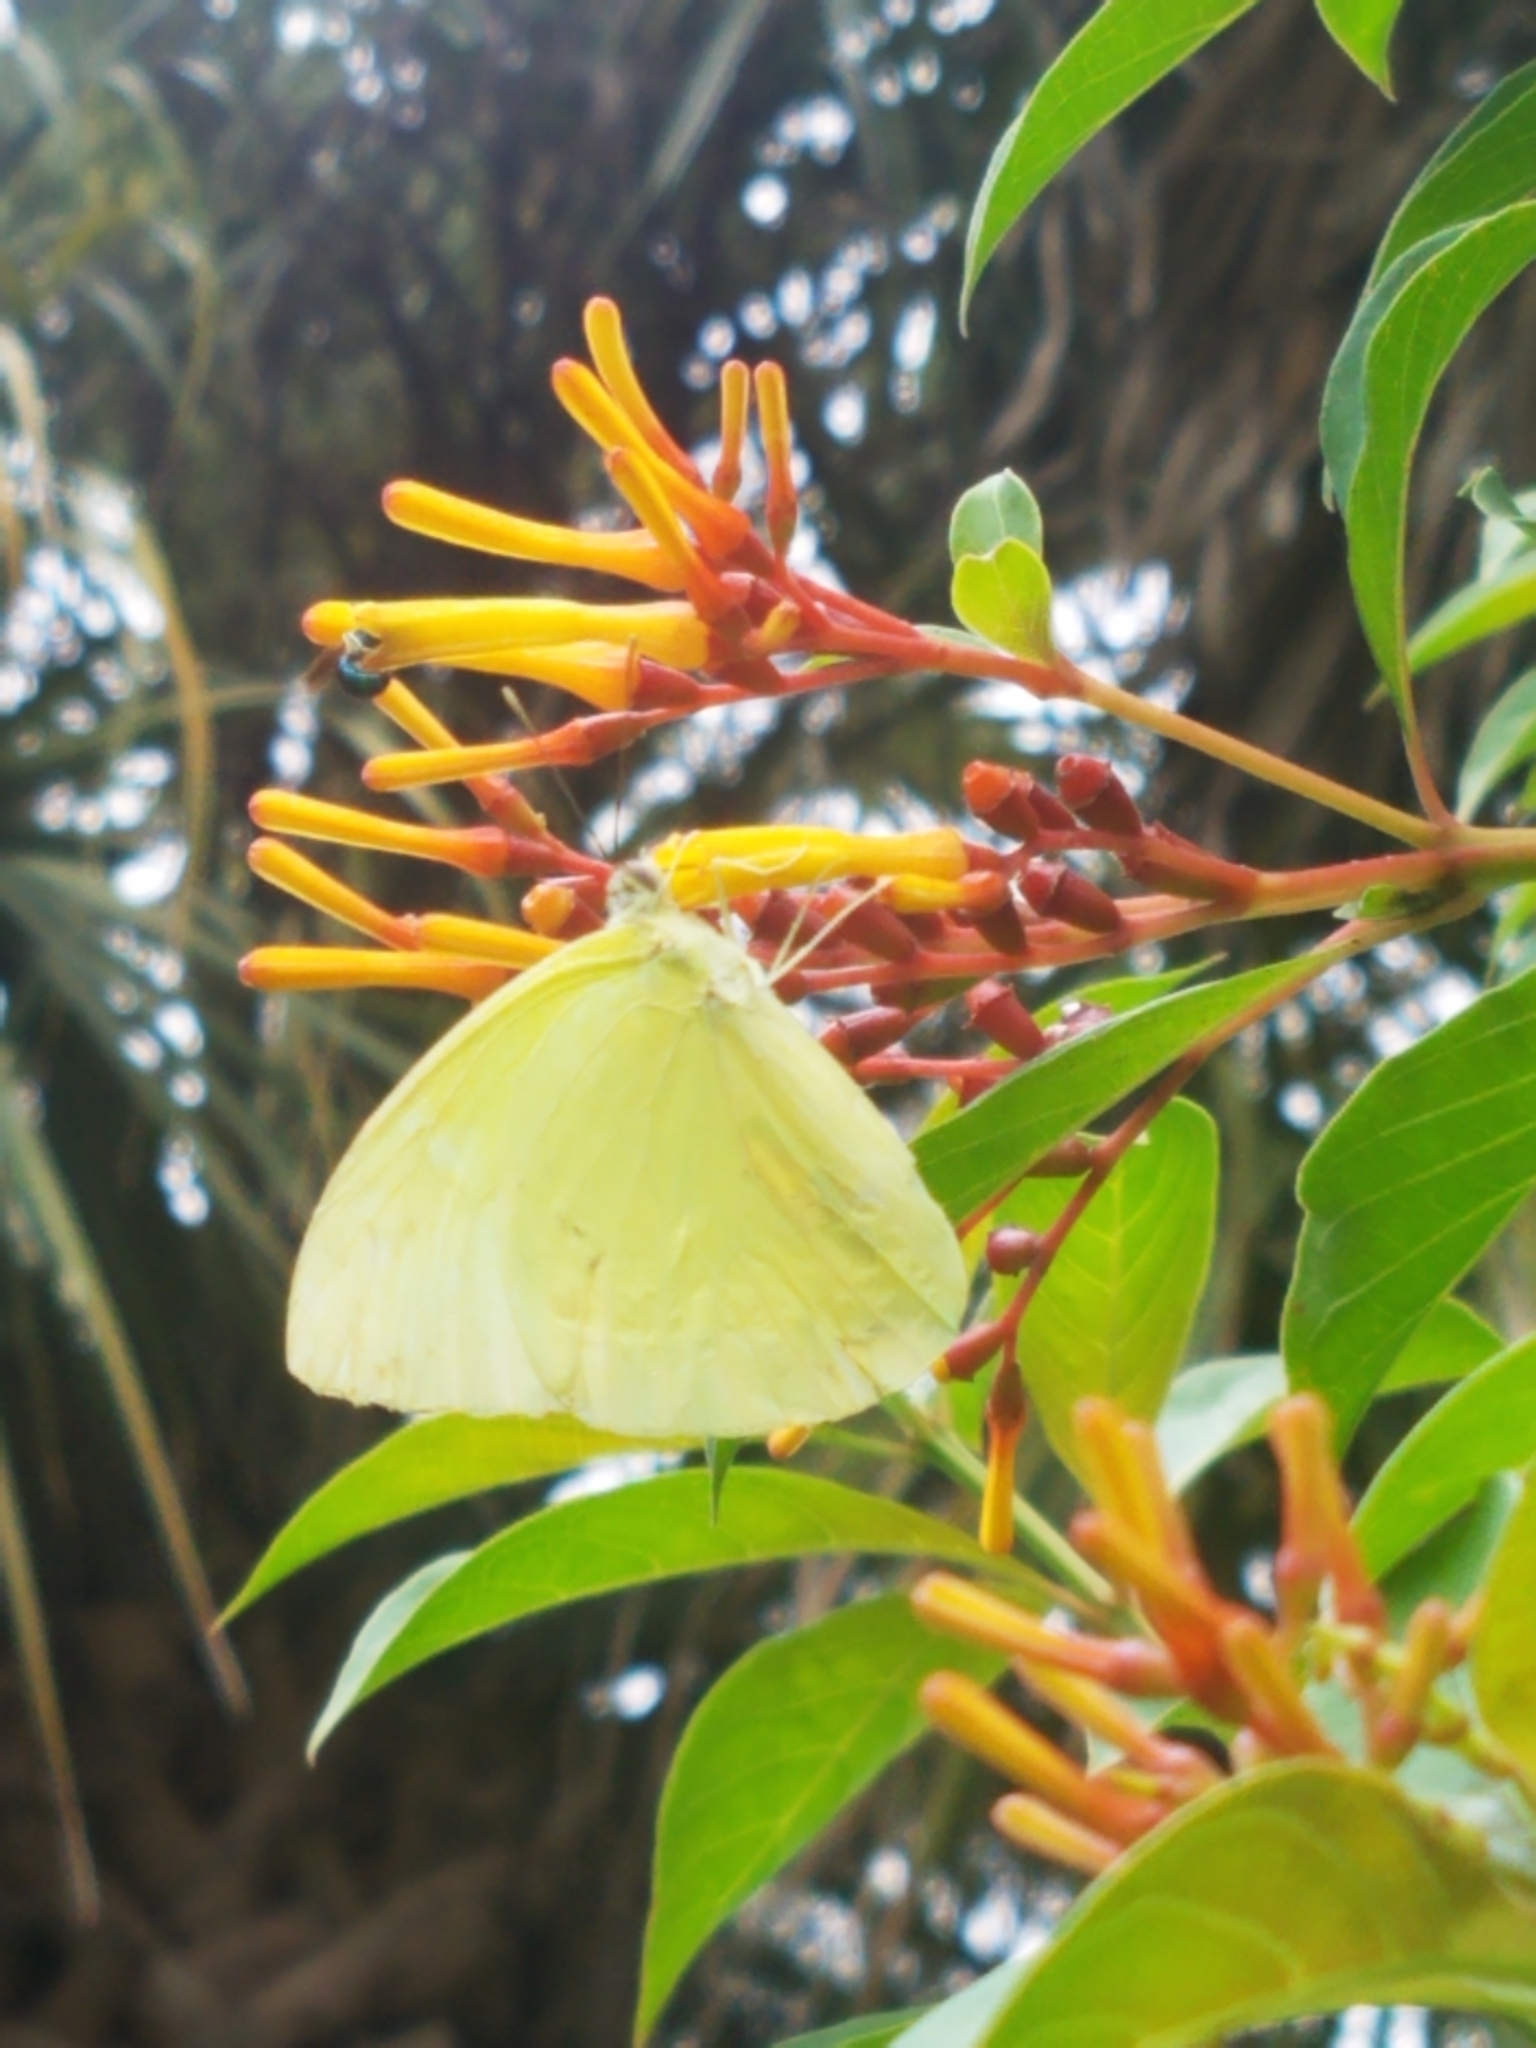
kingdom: Animalia
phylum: Arthropoda
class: Insecta
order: Lepidoptera
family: Pieridae
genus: Aphrissa
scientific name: Aphrissa statira
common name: Statira sulphur
